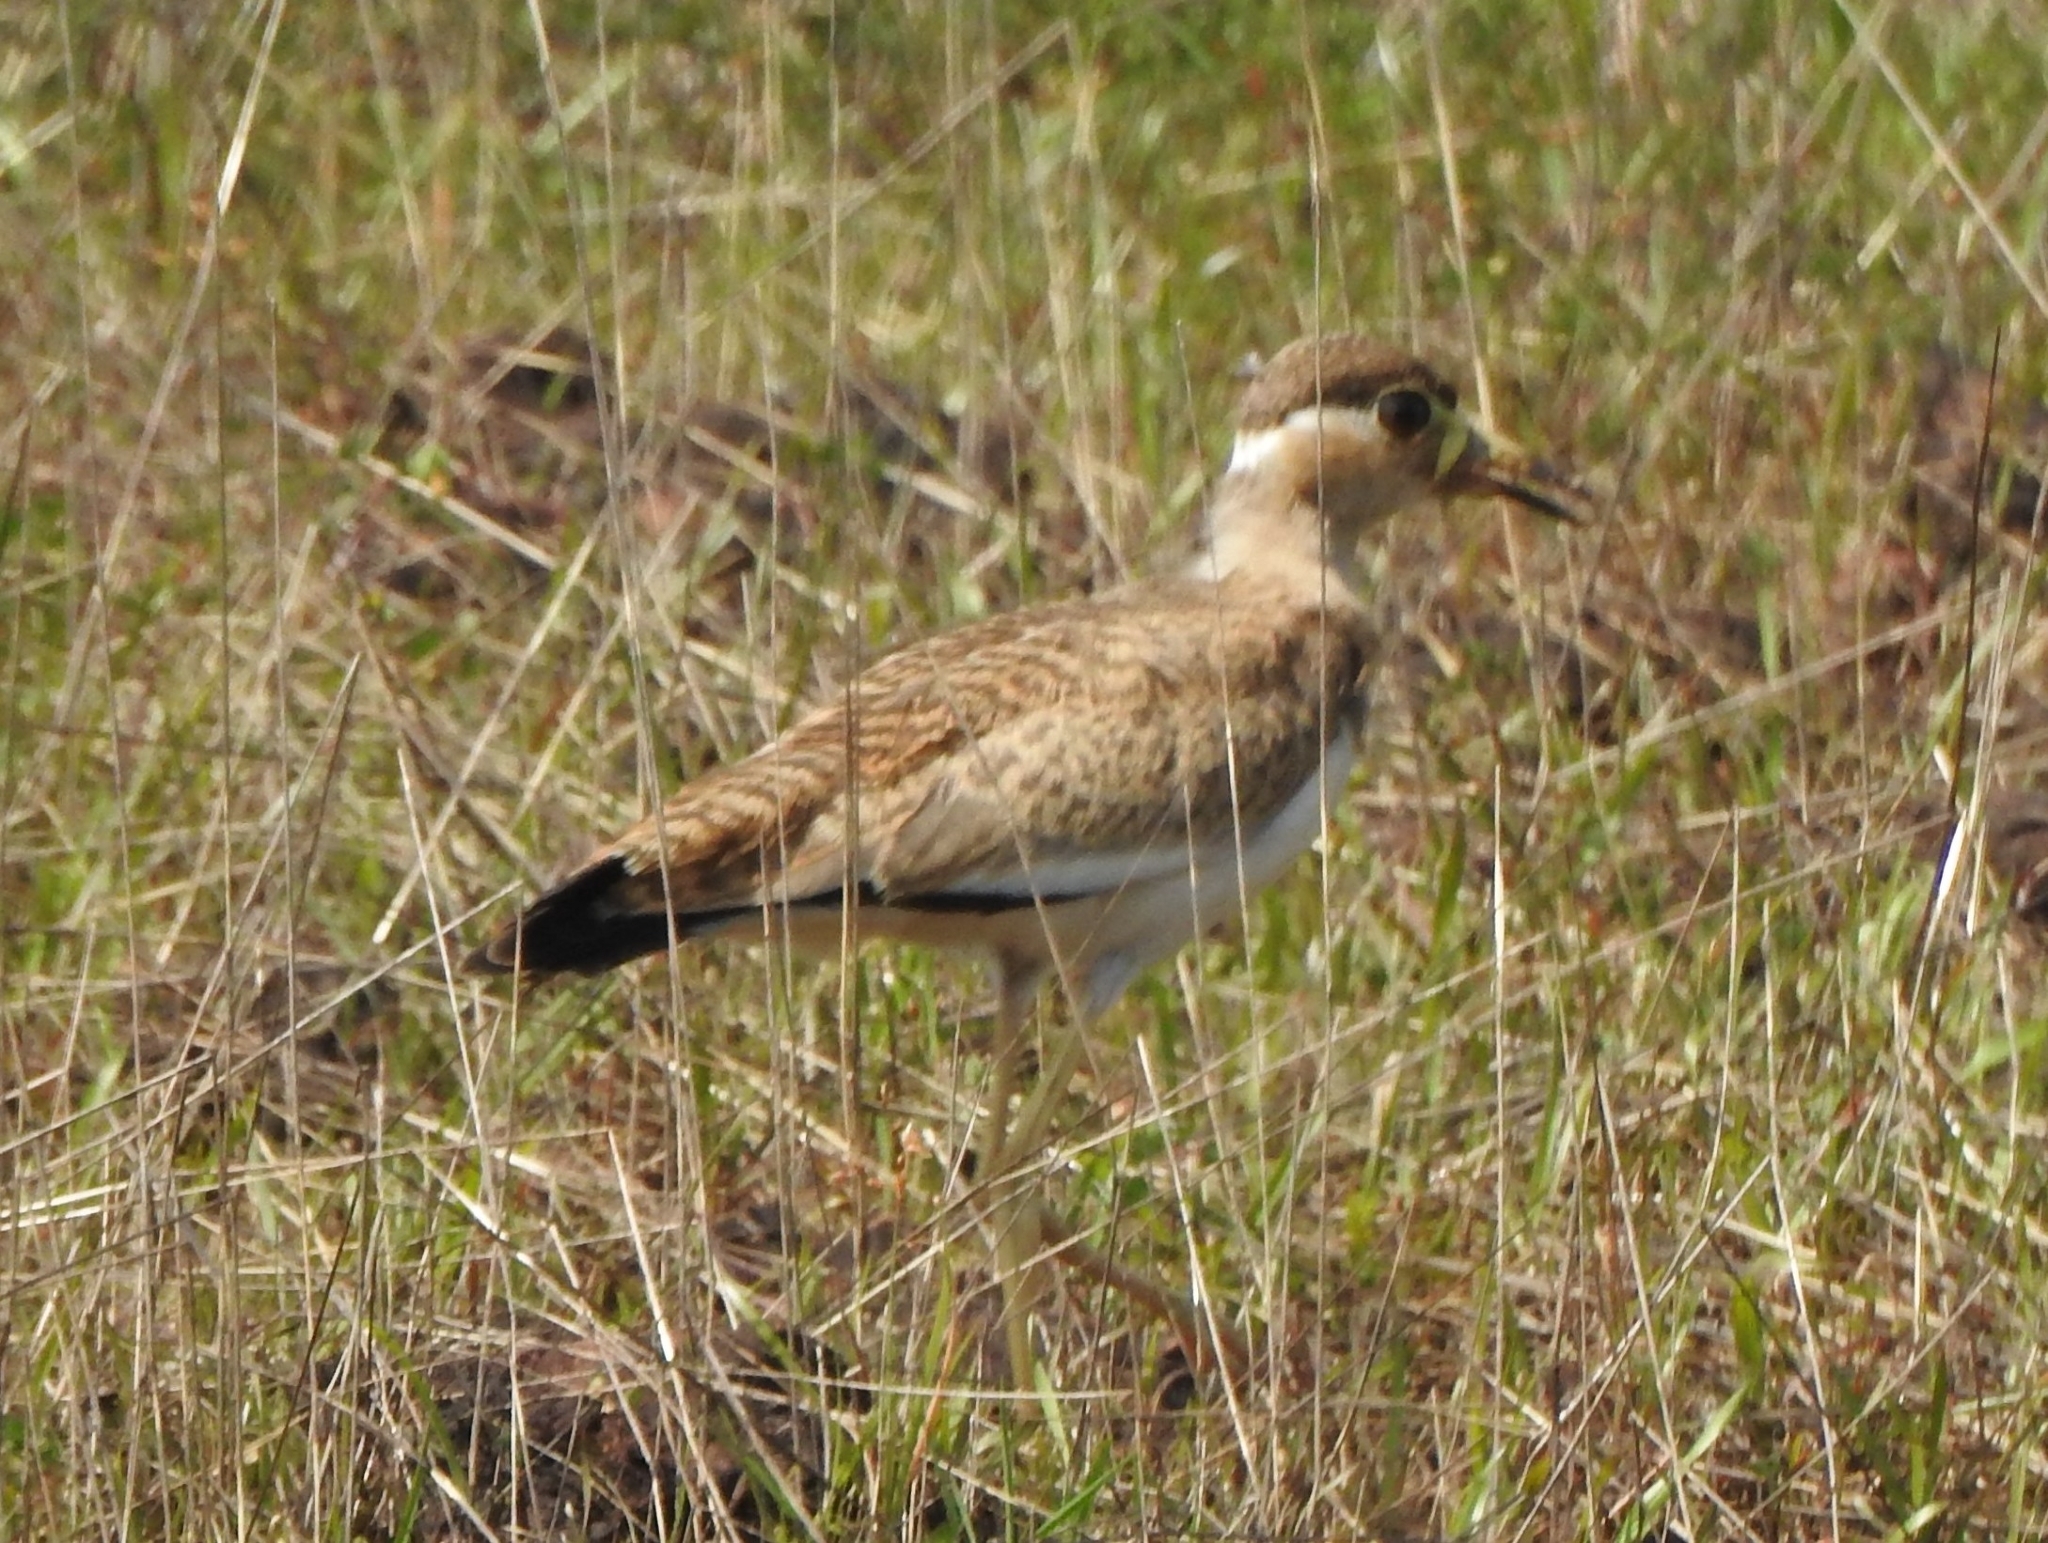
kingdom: Animalia
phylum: Chordata
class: Aves
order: Charadriiformes
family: Charadriidae
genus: Vanellus
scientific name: Vanellus malabaricus
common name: Yellow-wattled lapwing
